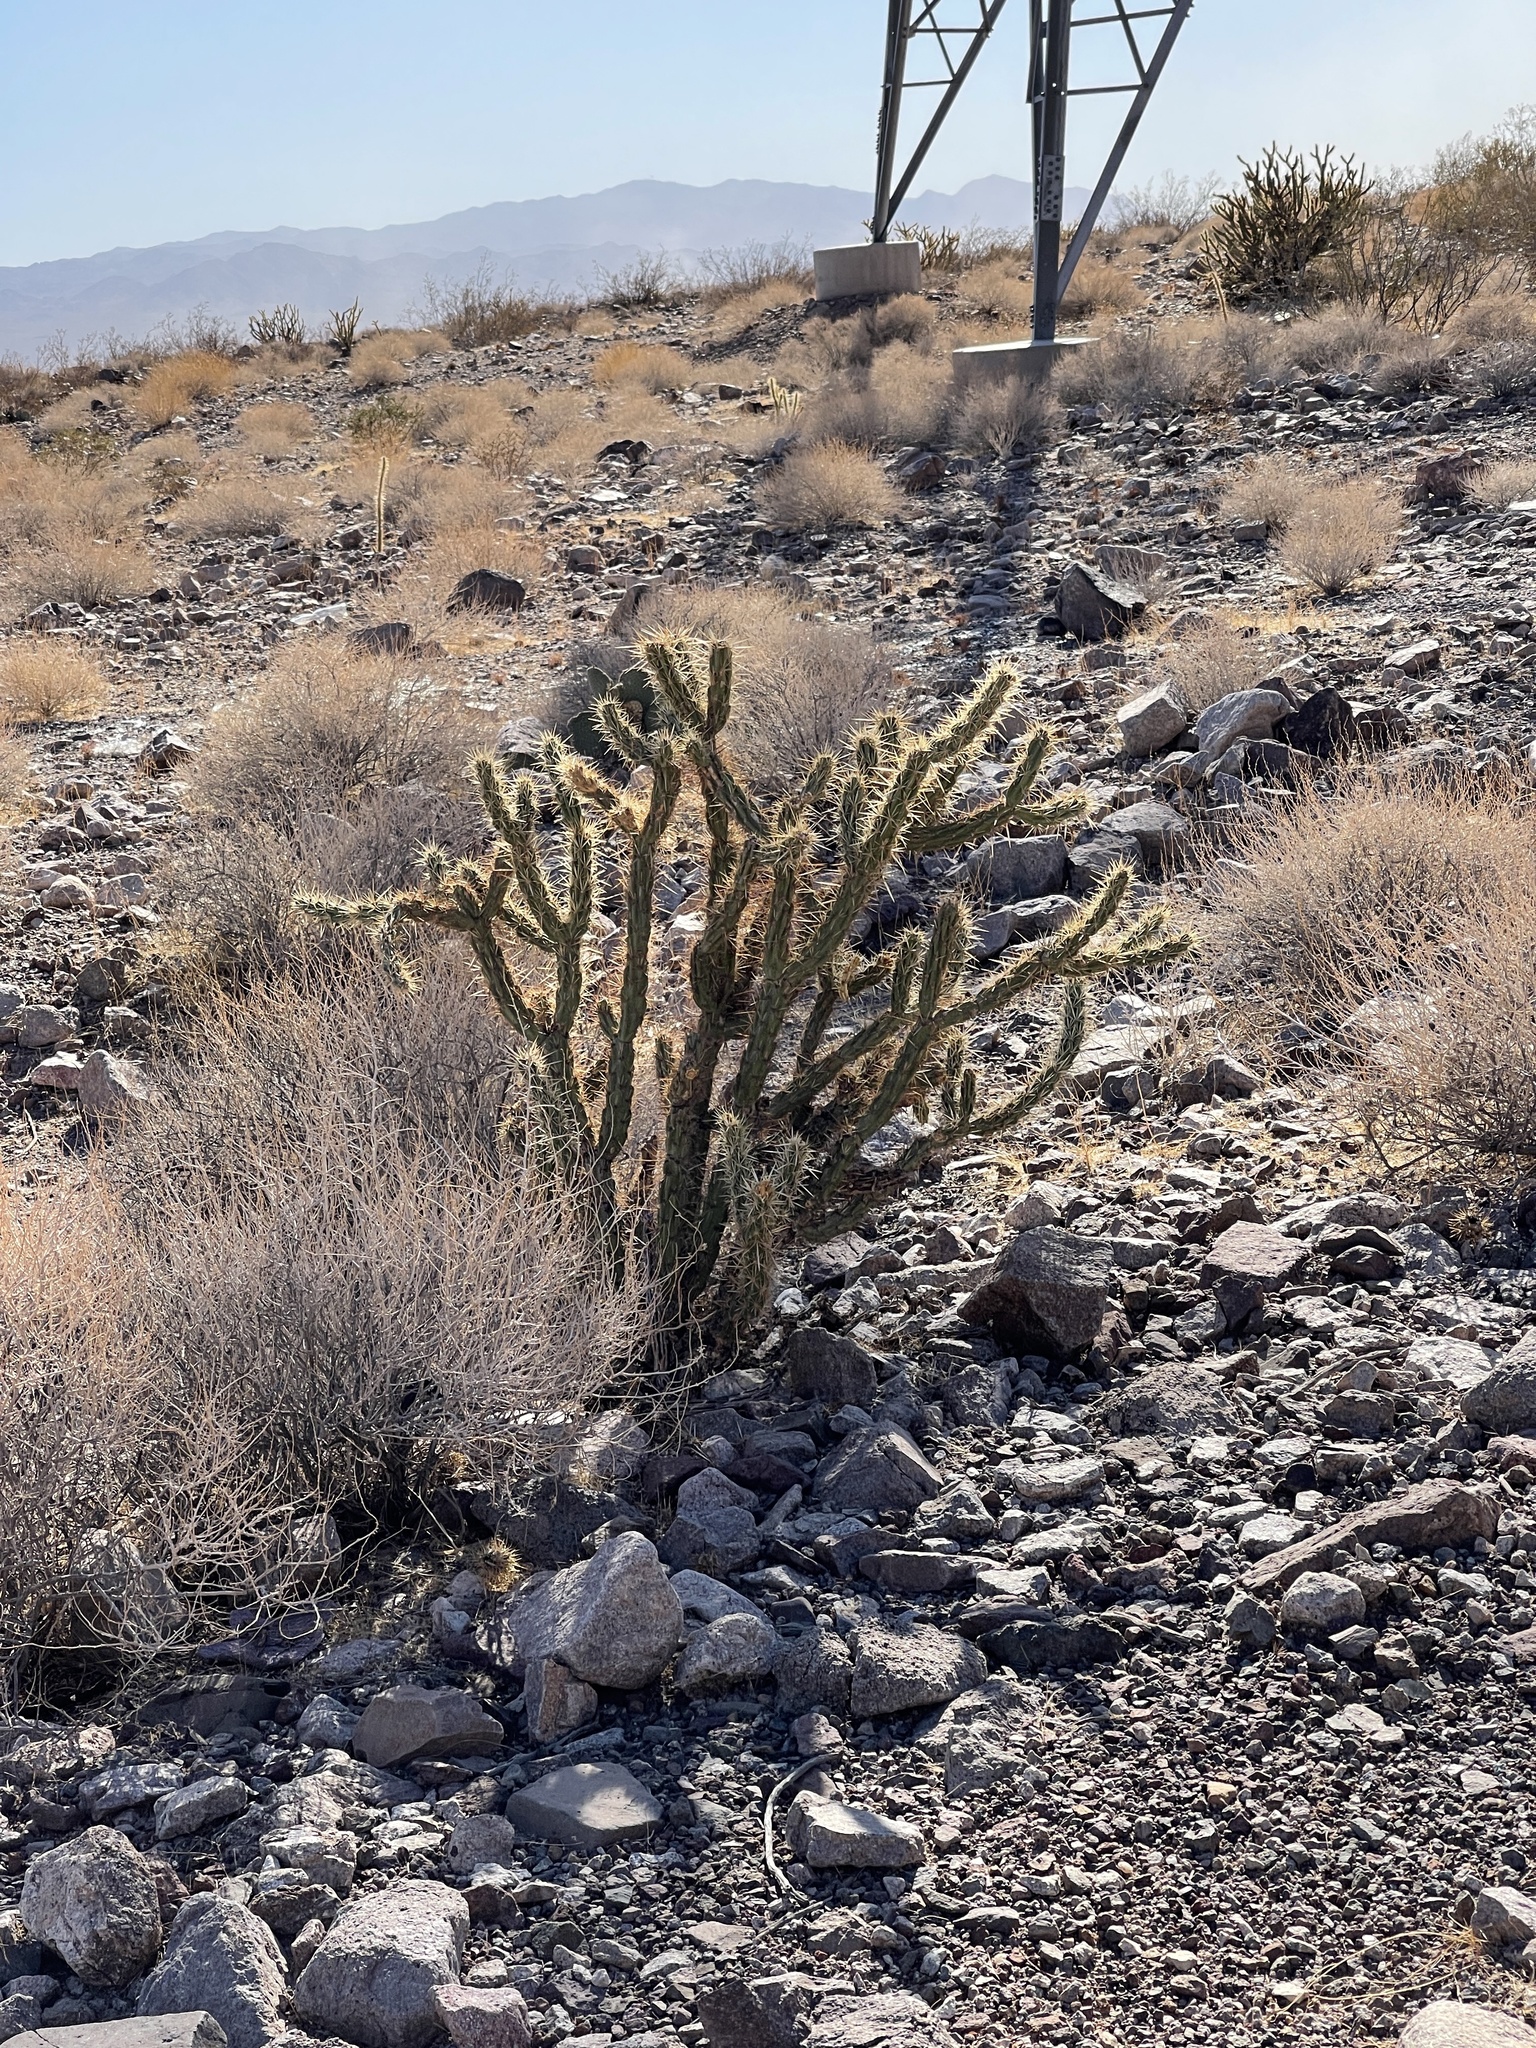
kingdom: Plantae
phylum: Tracheophyta
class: Magnoliopsida
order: Caryophyllales
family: Cactaceae
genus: Cylindropuntia
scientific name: Cylindropuntia acanthocarpa
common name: Buckhorn cholla
